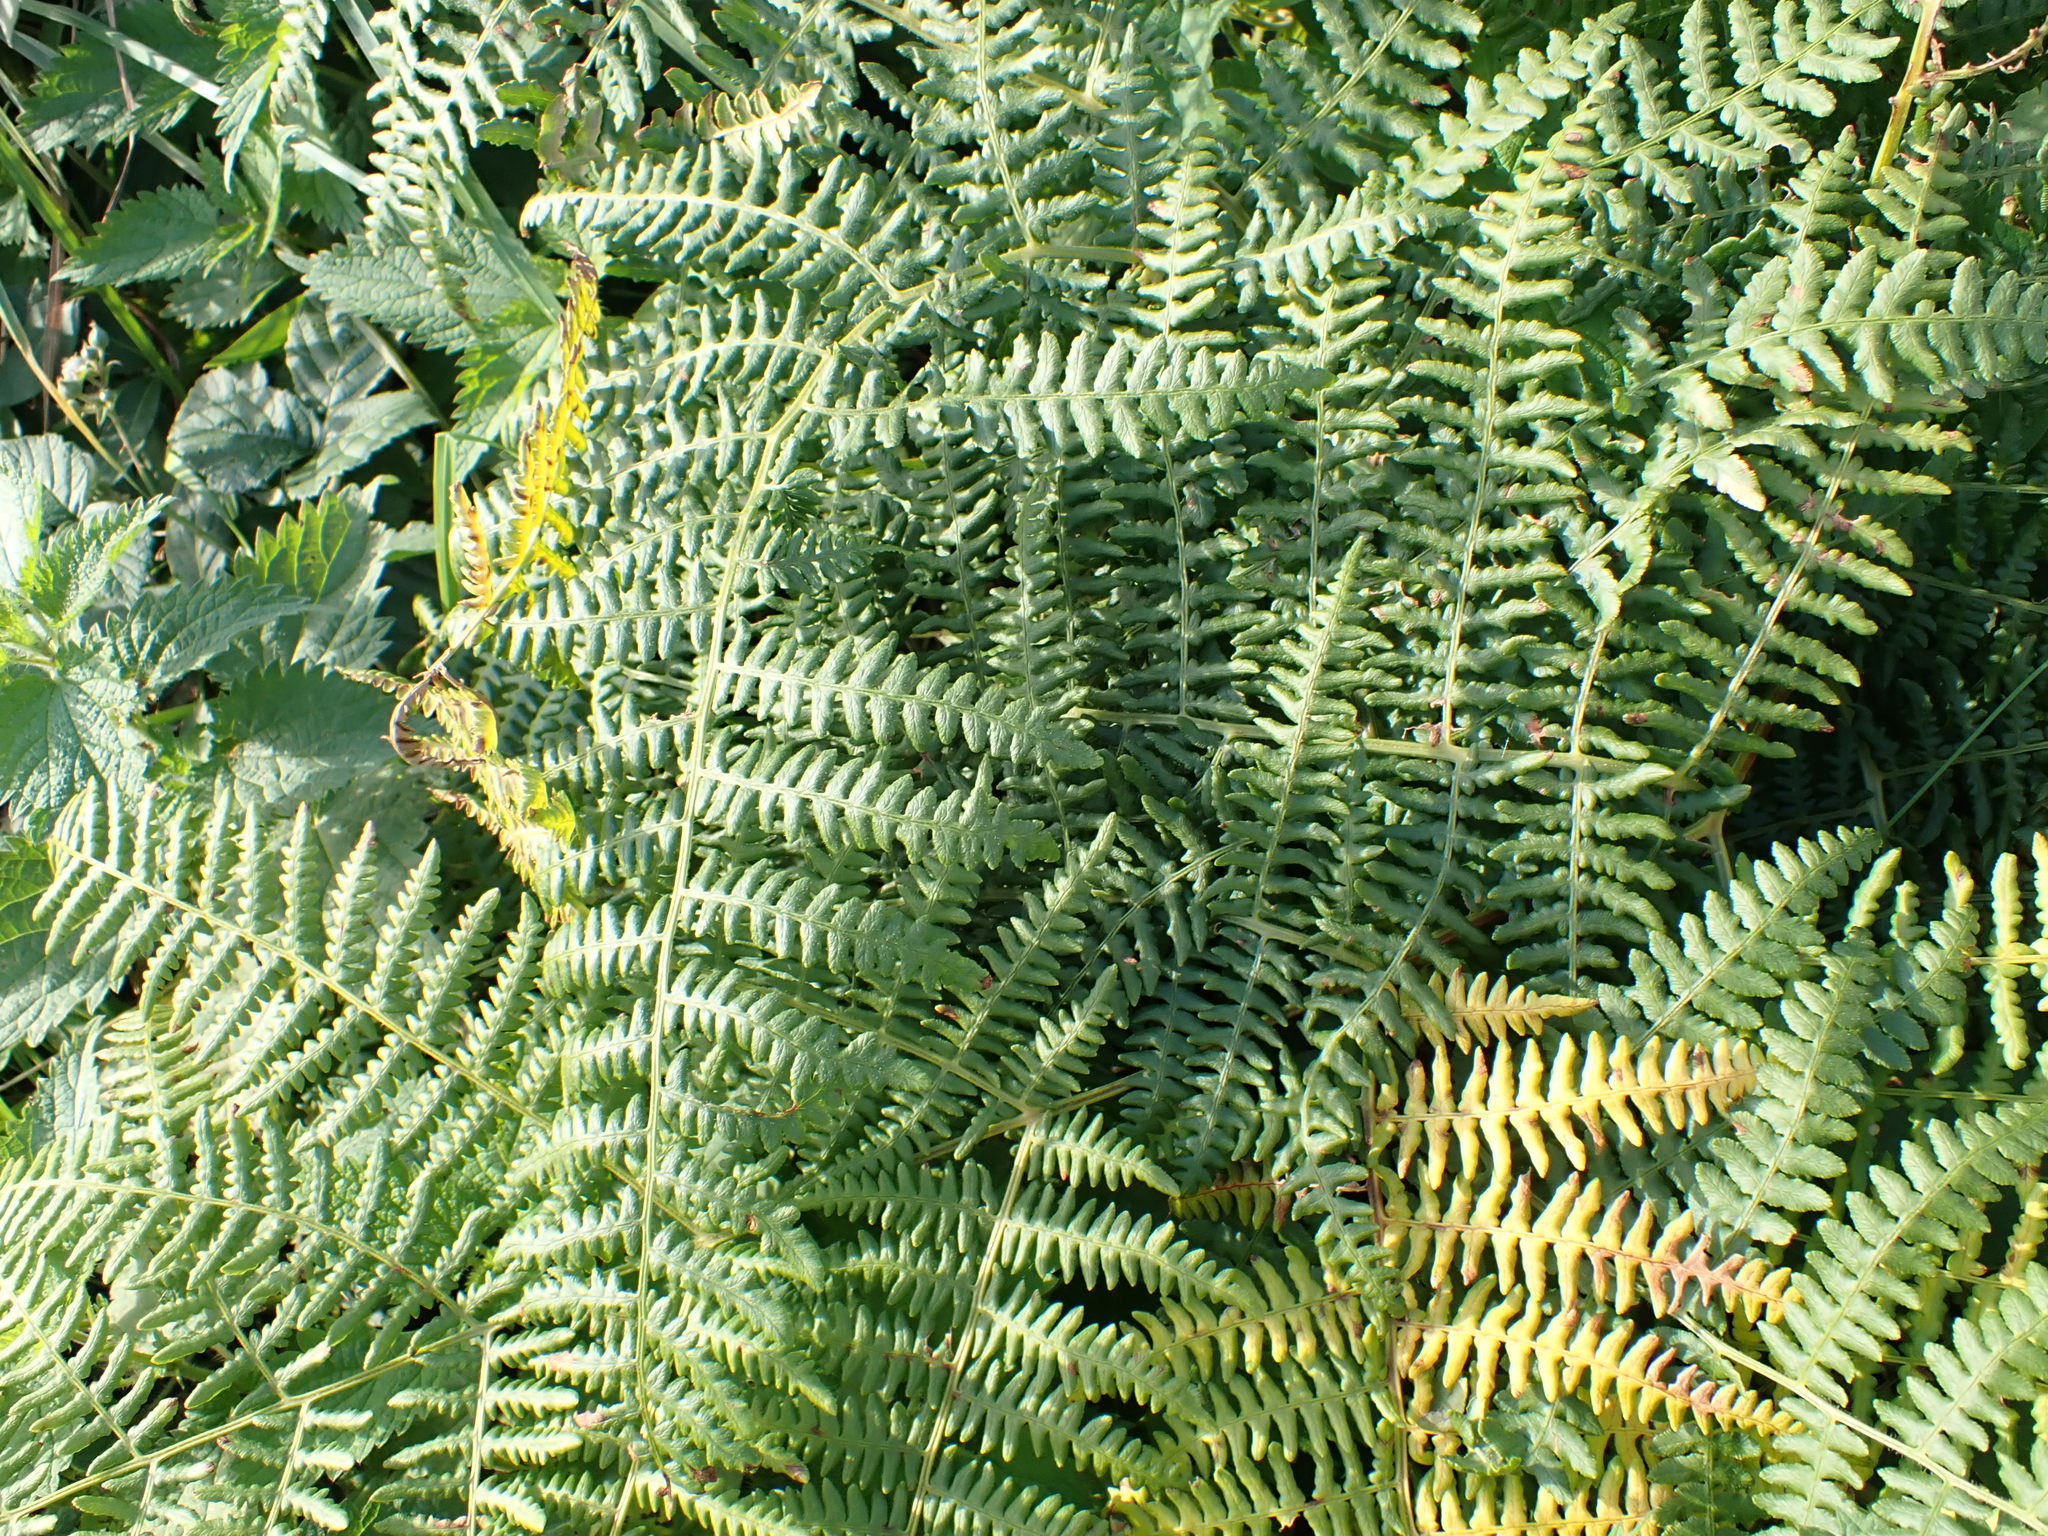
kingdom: Plantae
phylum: Tracheophyta
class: Polypodiopsida
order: Polypodiales
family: Dennstaedtiaceae
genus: Pteridium
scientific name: Pteridium aquilinum
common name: Bracken
